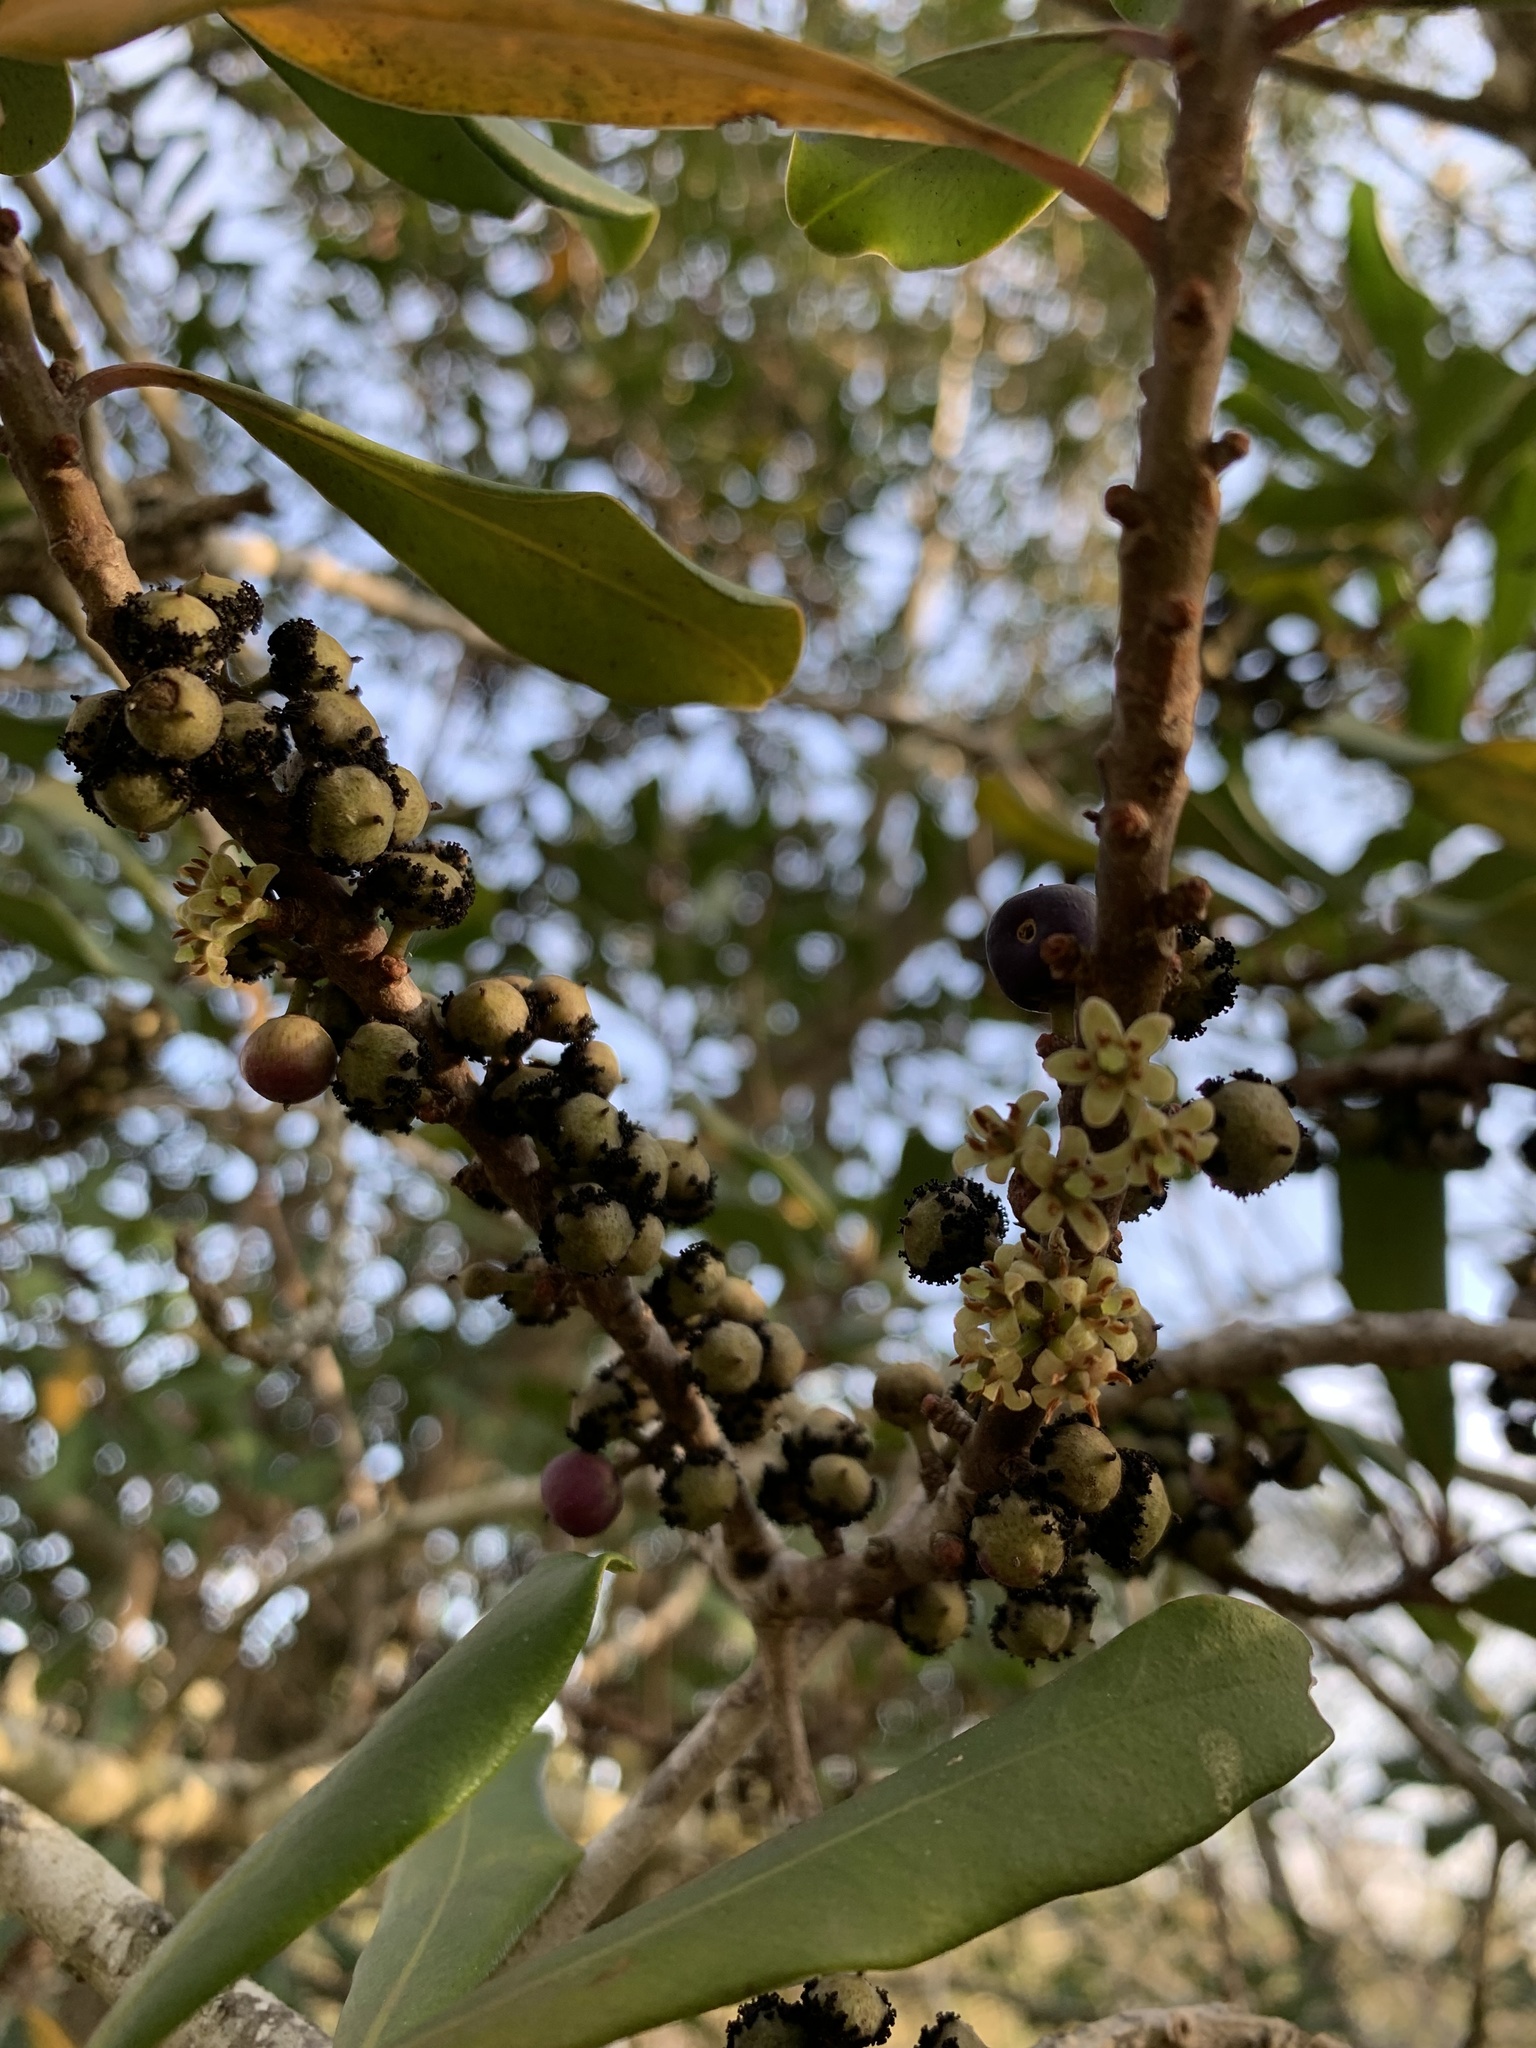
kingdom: Plantae
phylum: Tracheophyta
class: Magnoliopsida
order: Ericales
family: Primulaceae
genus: Myrsine
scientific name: Myrsine melanophloeos
